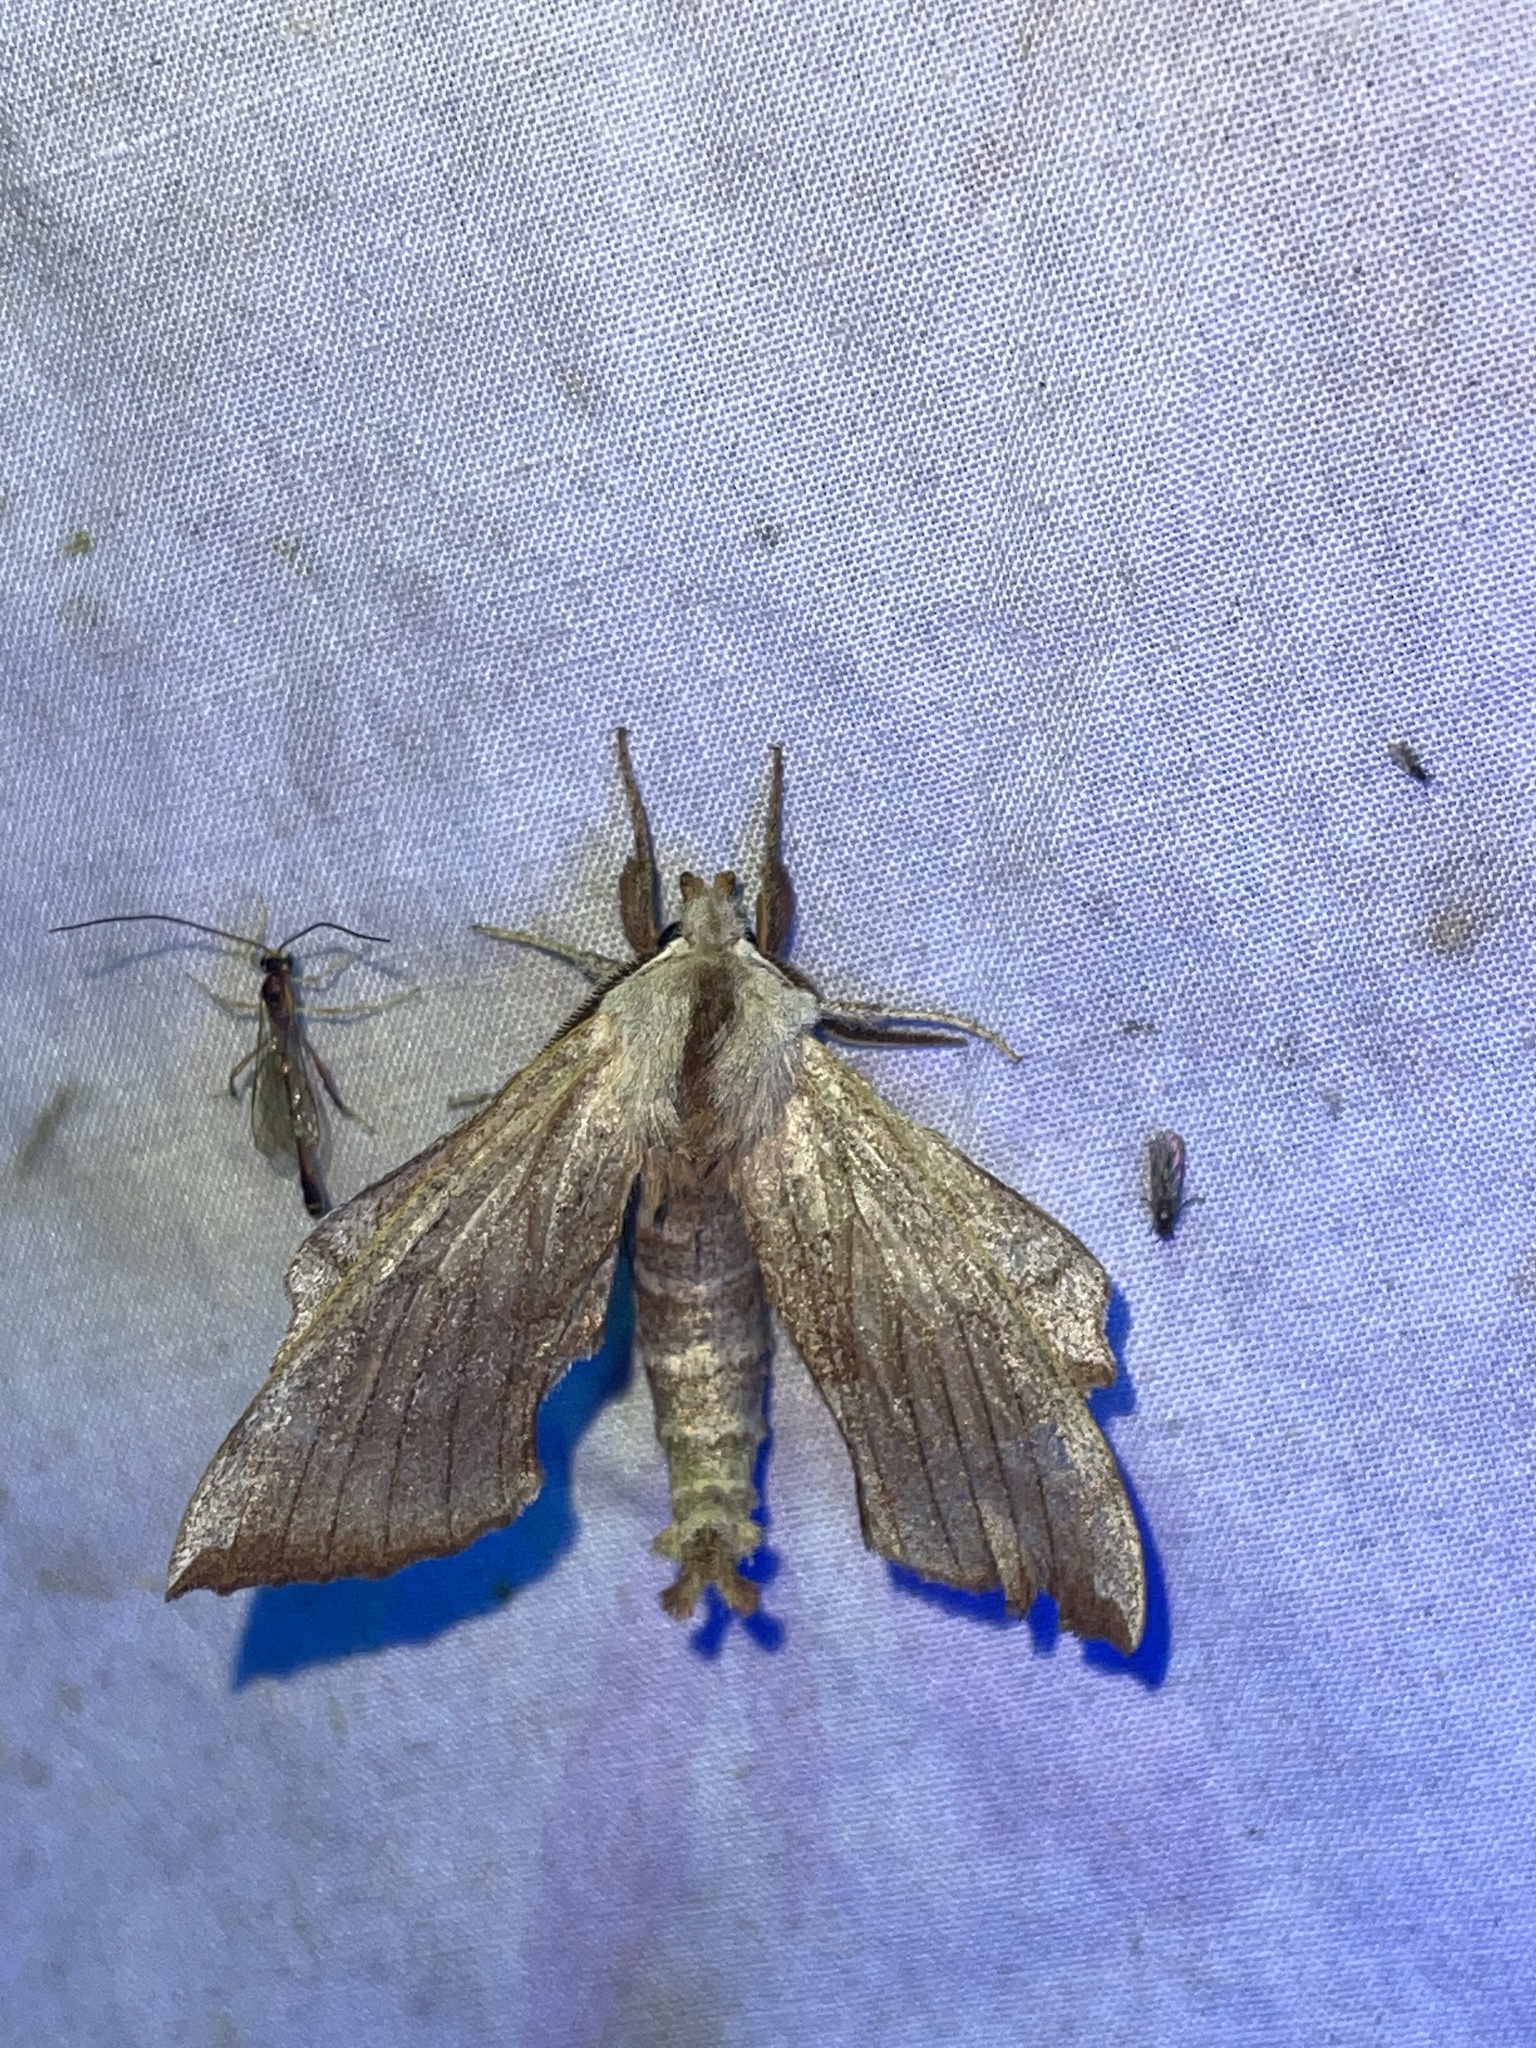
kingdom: Animalia
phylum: Arthropoda
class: Insecta
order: Lepidoptera
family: Sphingidae
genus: Amorpha
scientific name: Amorpha juglandis
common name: Walnut sphinx
